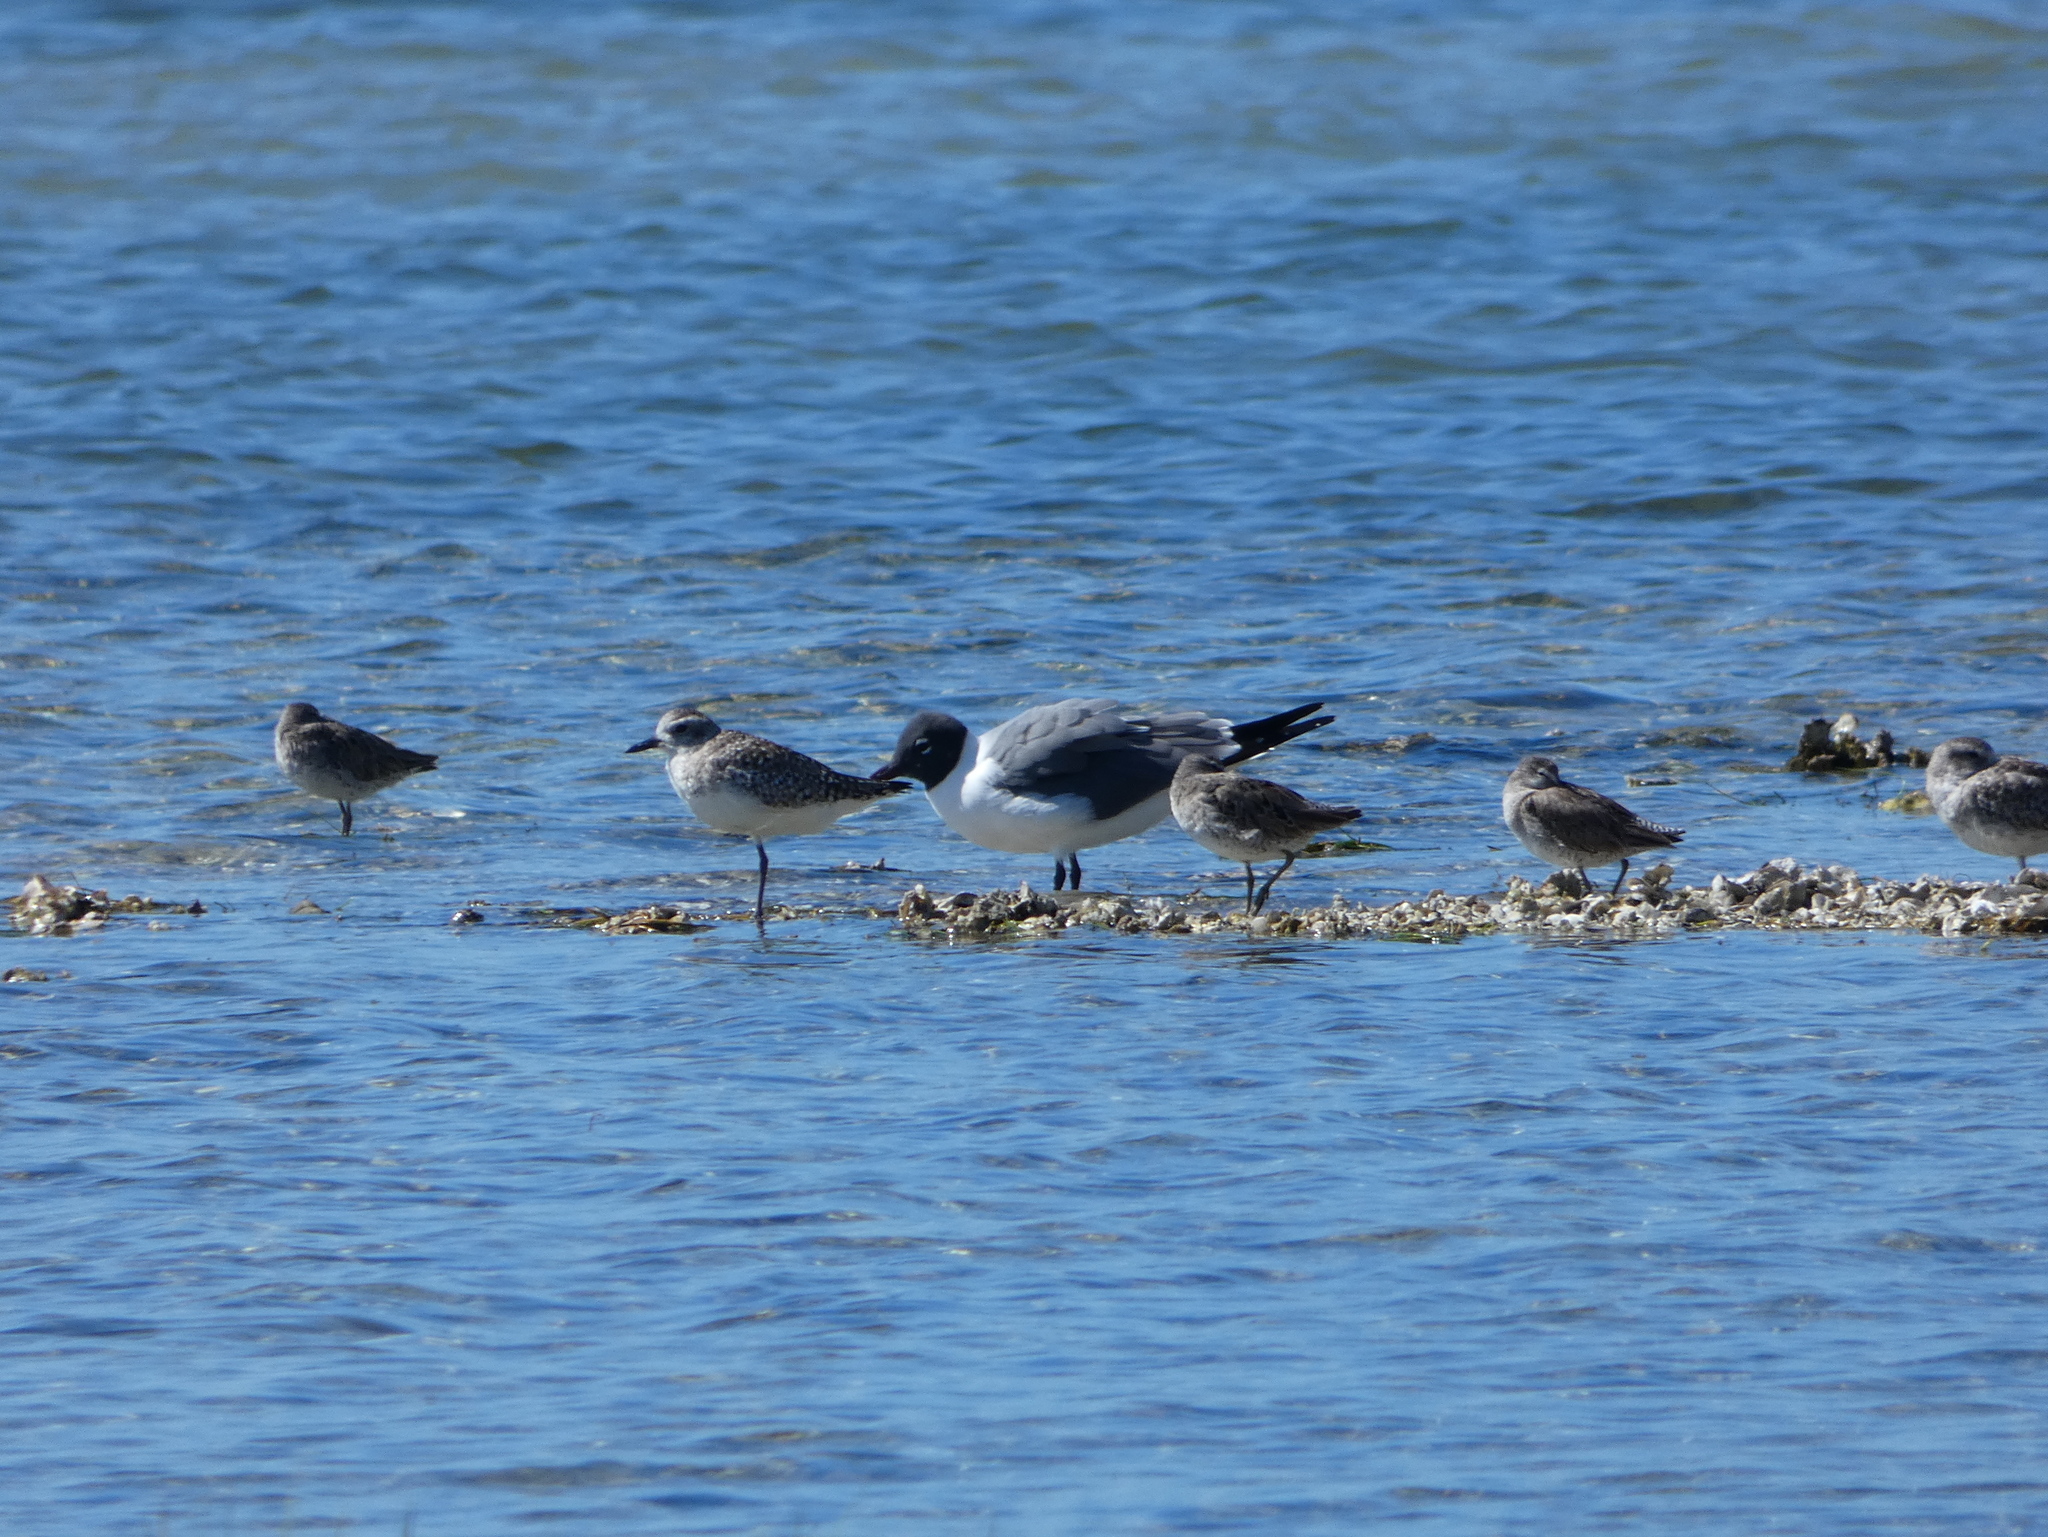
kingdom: Animalia
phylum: Chordata
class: Aves
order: Charadriiformes
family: Laridae
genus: Leucophaeus
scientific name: Leucophaeus atricilla
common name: Laughing gull
